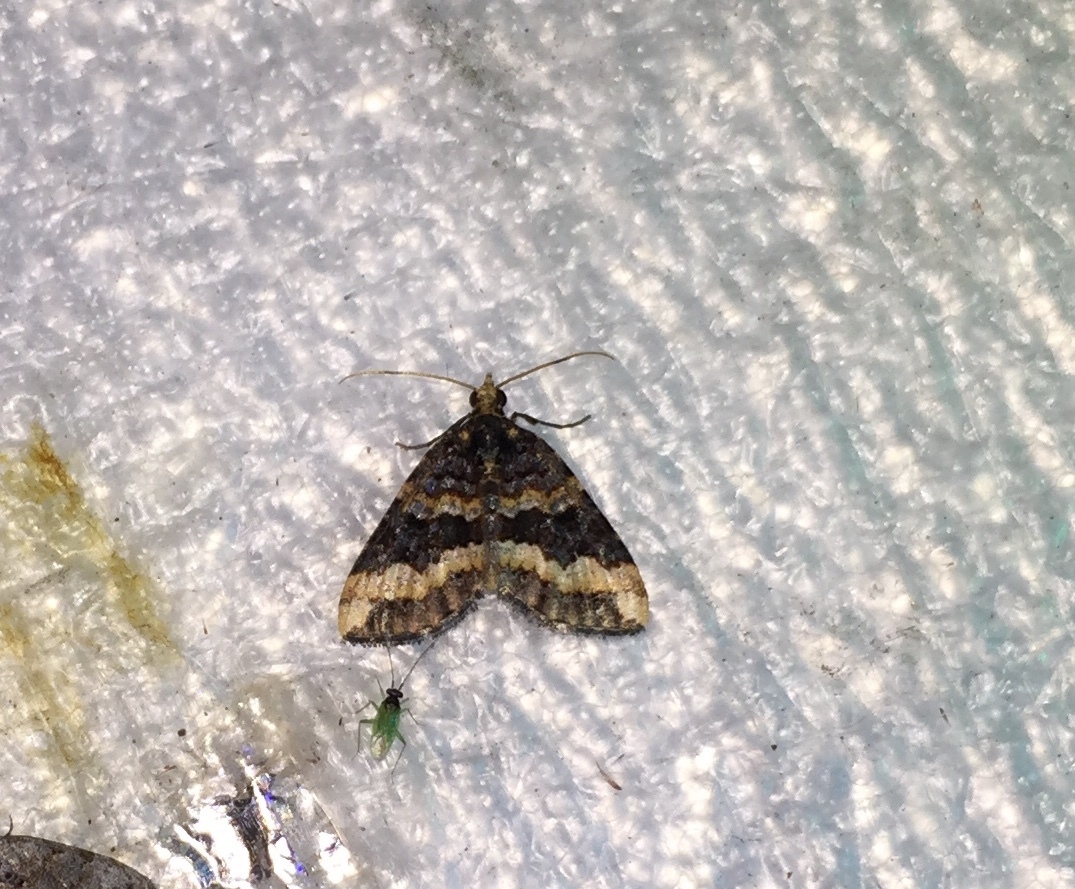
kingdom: Animalia
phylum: Arthropoda
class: Insecta
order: Lepidoptera
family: Geometridae
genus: Horisme
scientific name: Horisme chlorodesma
